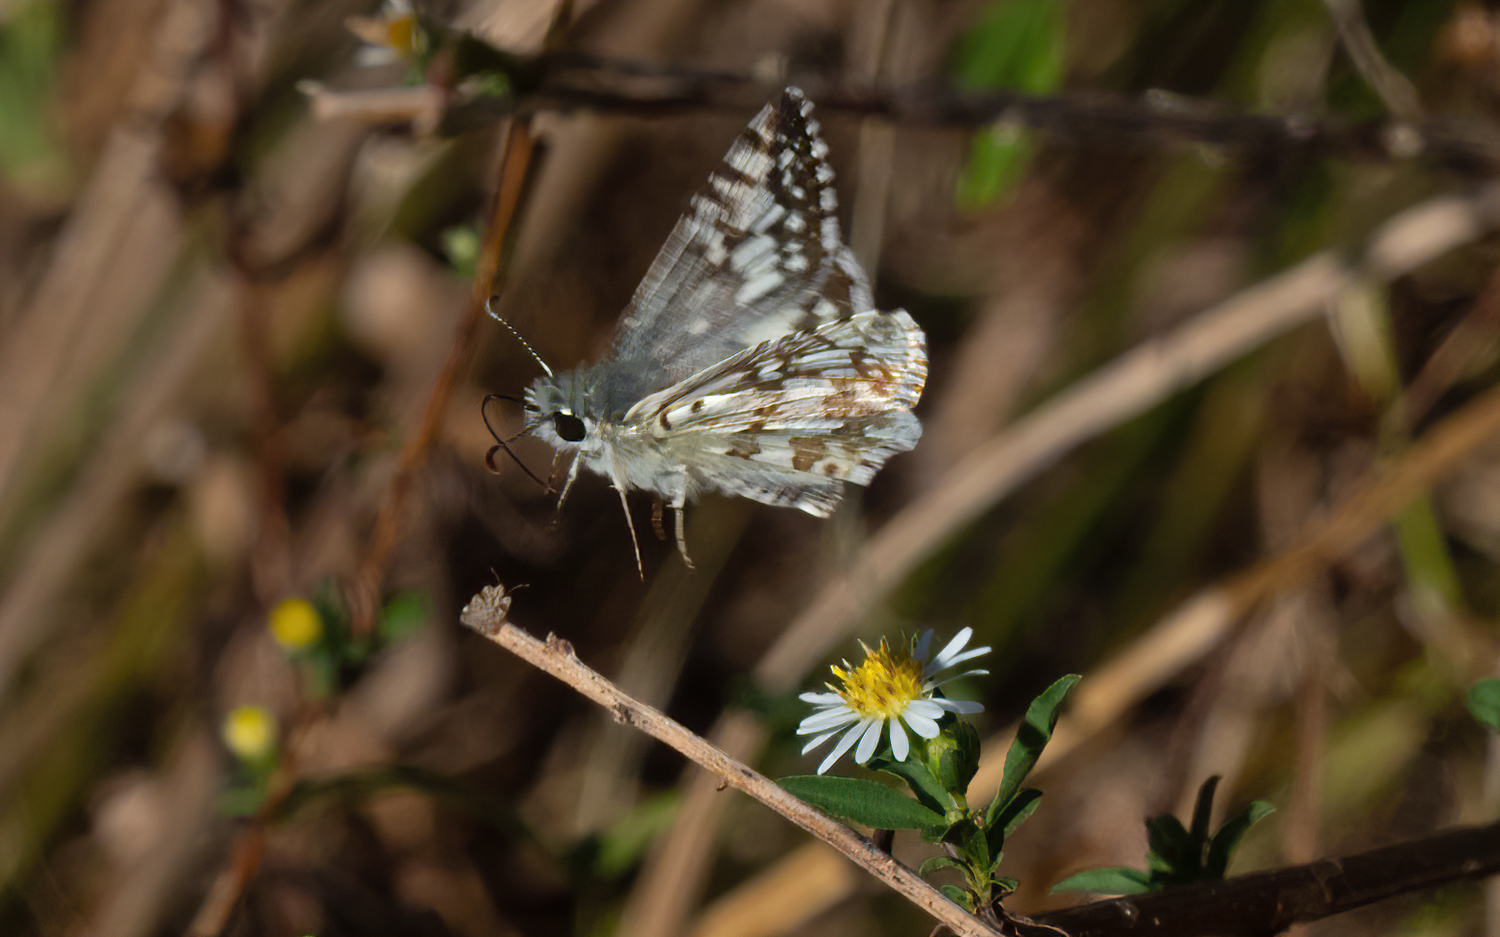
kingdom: Animalia
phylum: Arthropoda
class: Insecta
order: Lepidoptera
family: Hesperiidae
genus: Burnsius
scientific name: Burnsius communis
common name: Common checkered-skipper
